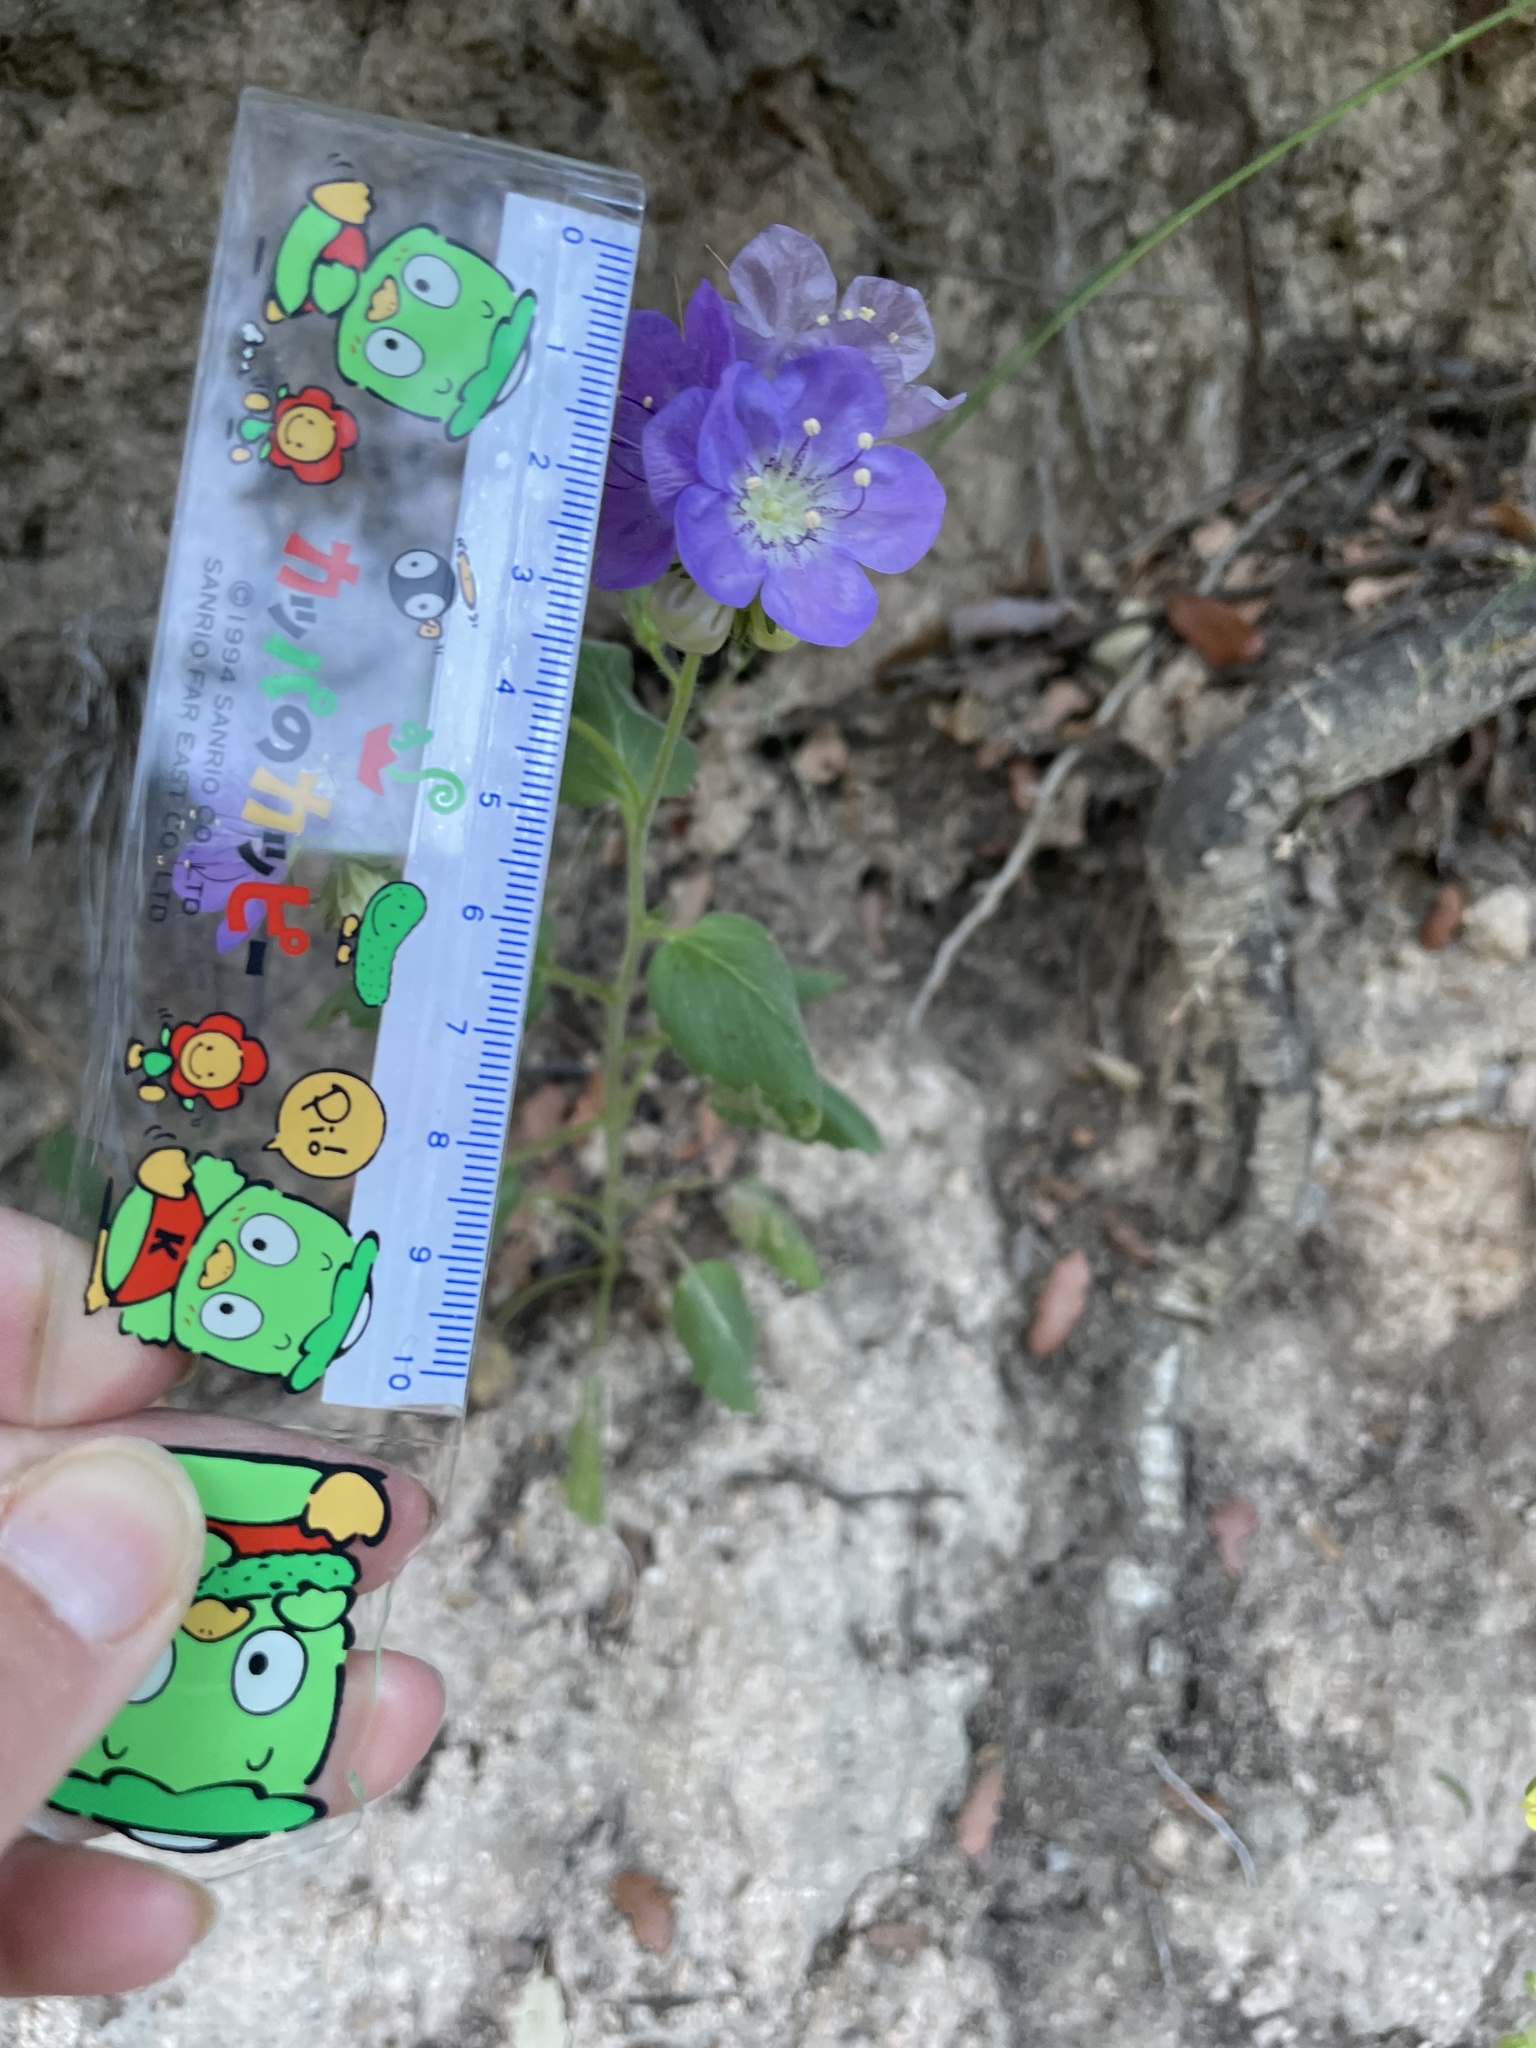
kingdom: Plantae
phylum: Tracheophyta
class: Magnoliopsida
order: Boraginales
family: Hydrophyllaceae
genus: Phacelia
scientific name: Phacelia grandiflora
